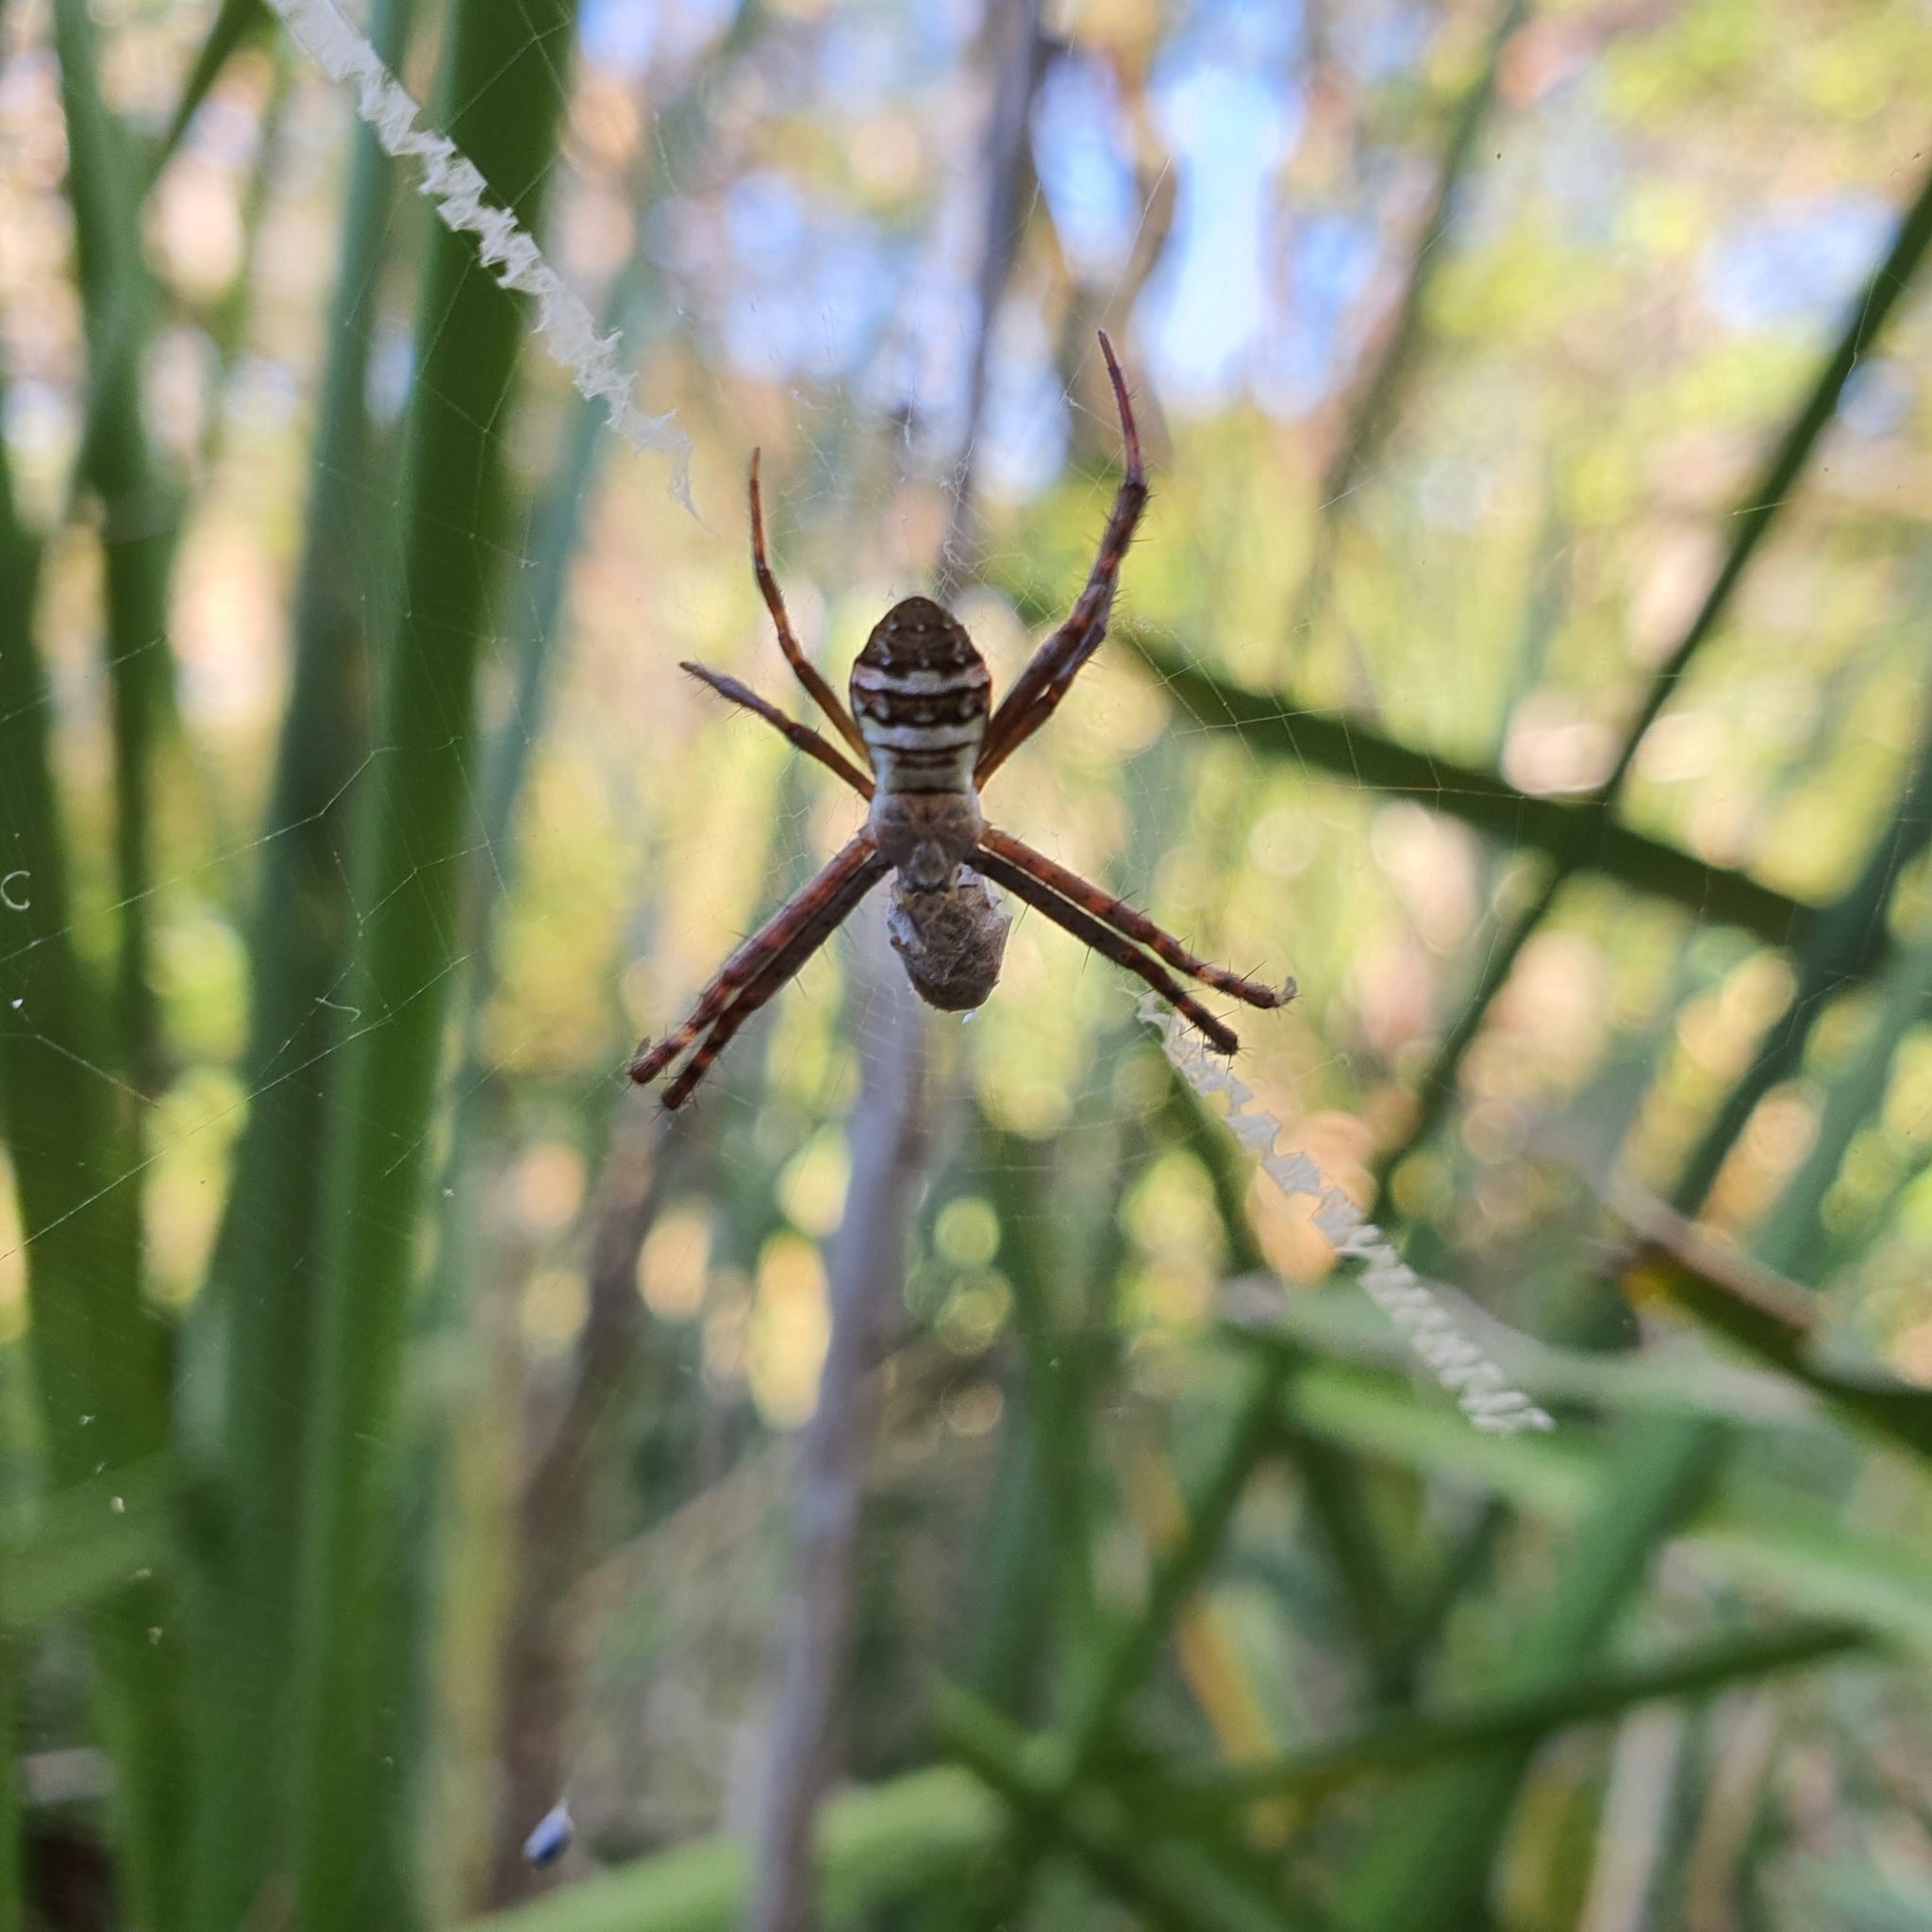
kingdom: Animalia
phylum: Arthropoda
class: Arachnida
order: Araneae
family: Araneidae
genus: Argiope
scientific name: Argiope keyserlingi
